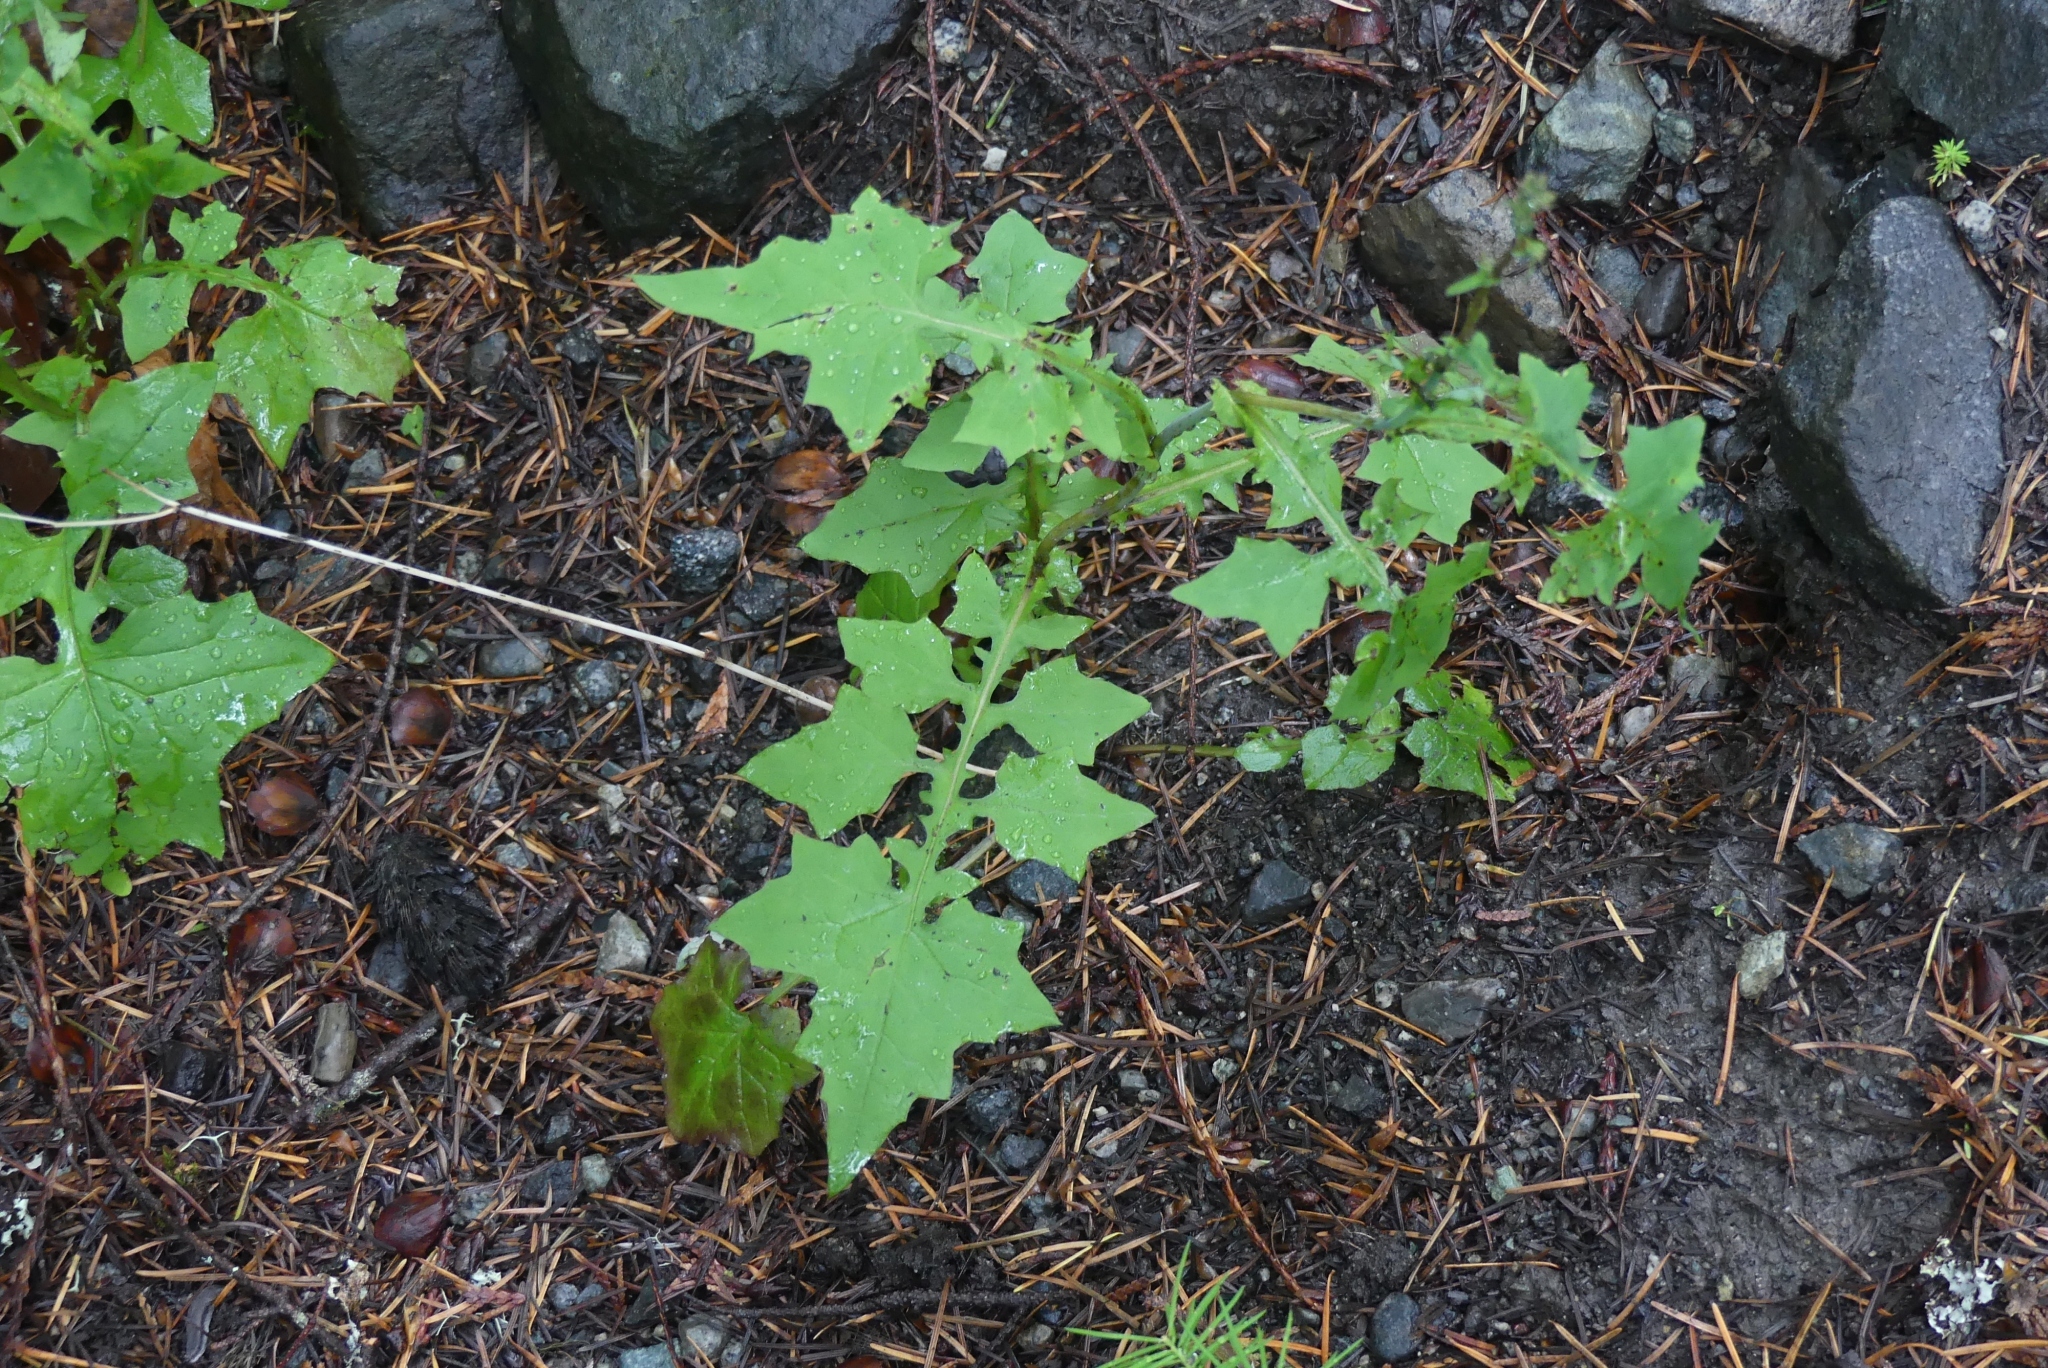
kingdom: Plantae
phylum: Tracheophyta
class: Magnoliopsida
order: Asterales
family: Asteraceae
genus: Mycelis
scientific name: Mycelis muralis
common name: Wall lettuce
